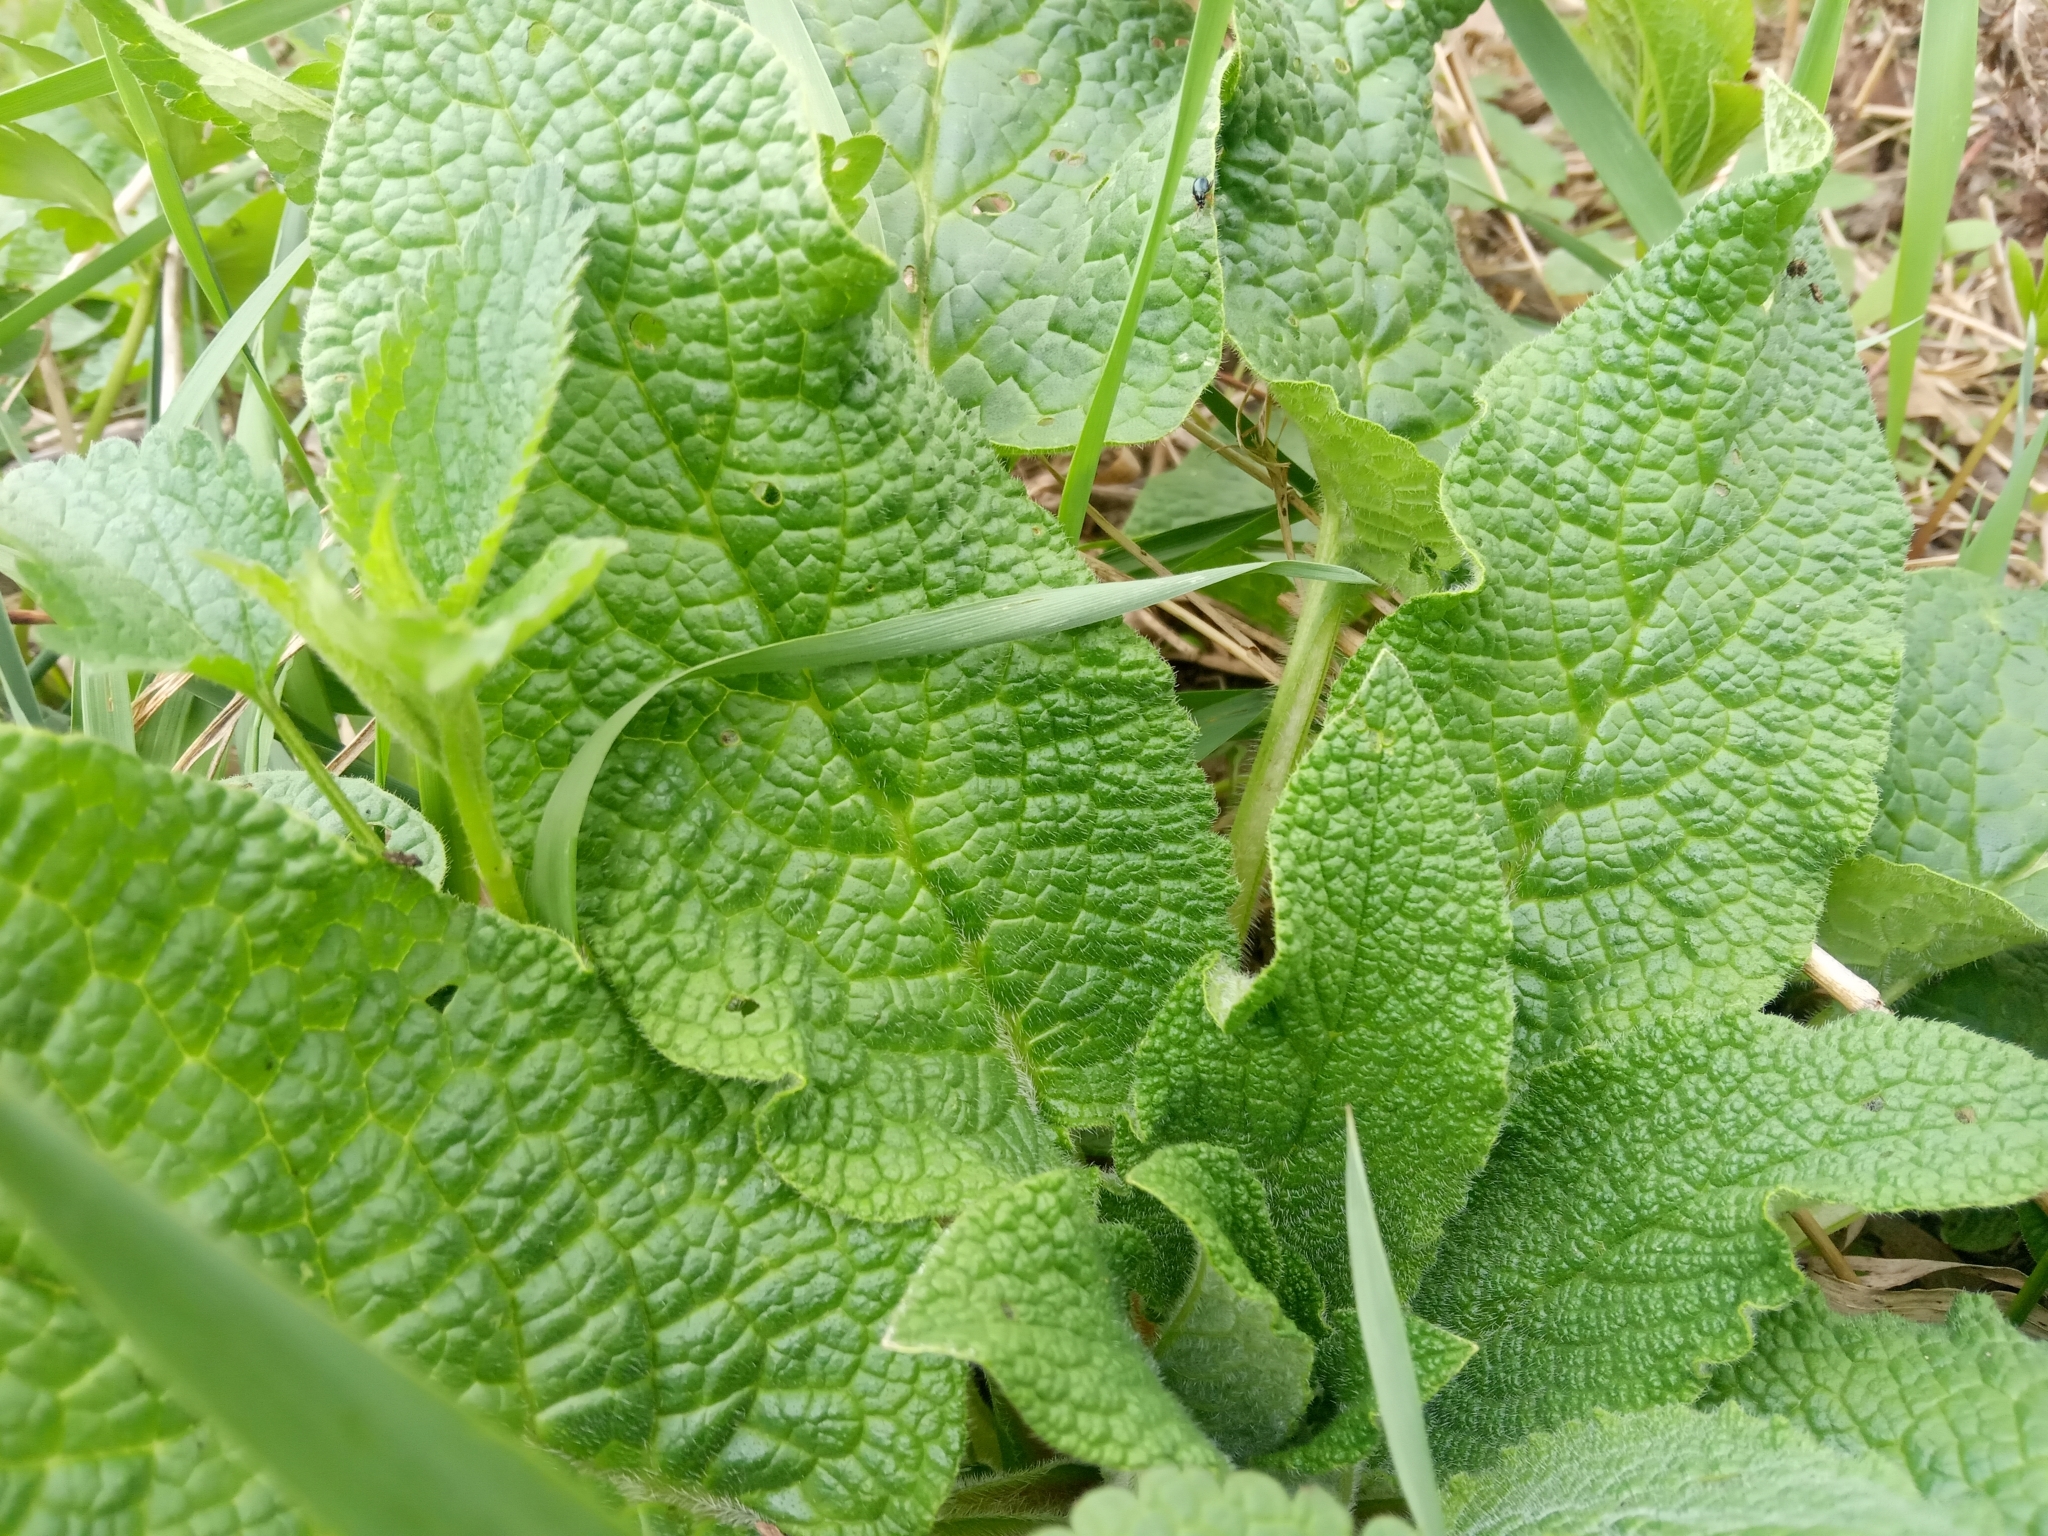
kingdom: Plantae
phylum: Tracheophyta
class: Magnoliopsida
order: Boraginales
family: Boraginaceae
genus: Symphytum
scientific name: Symphytum
